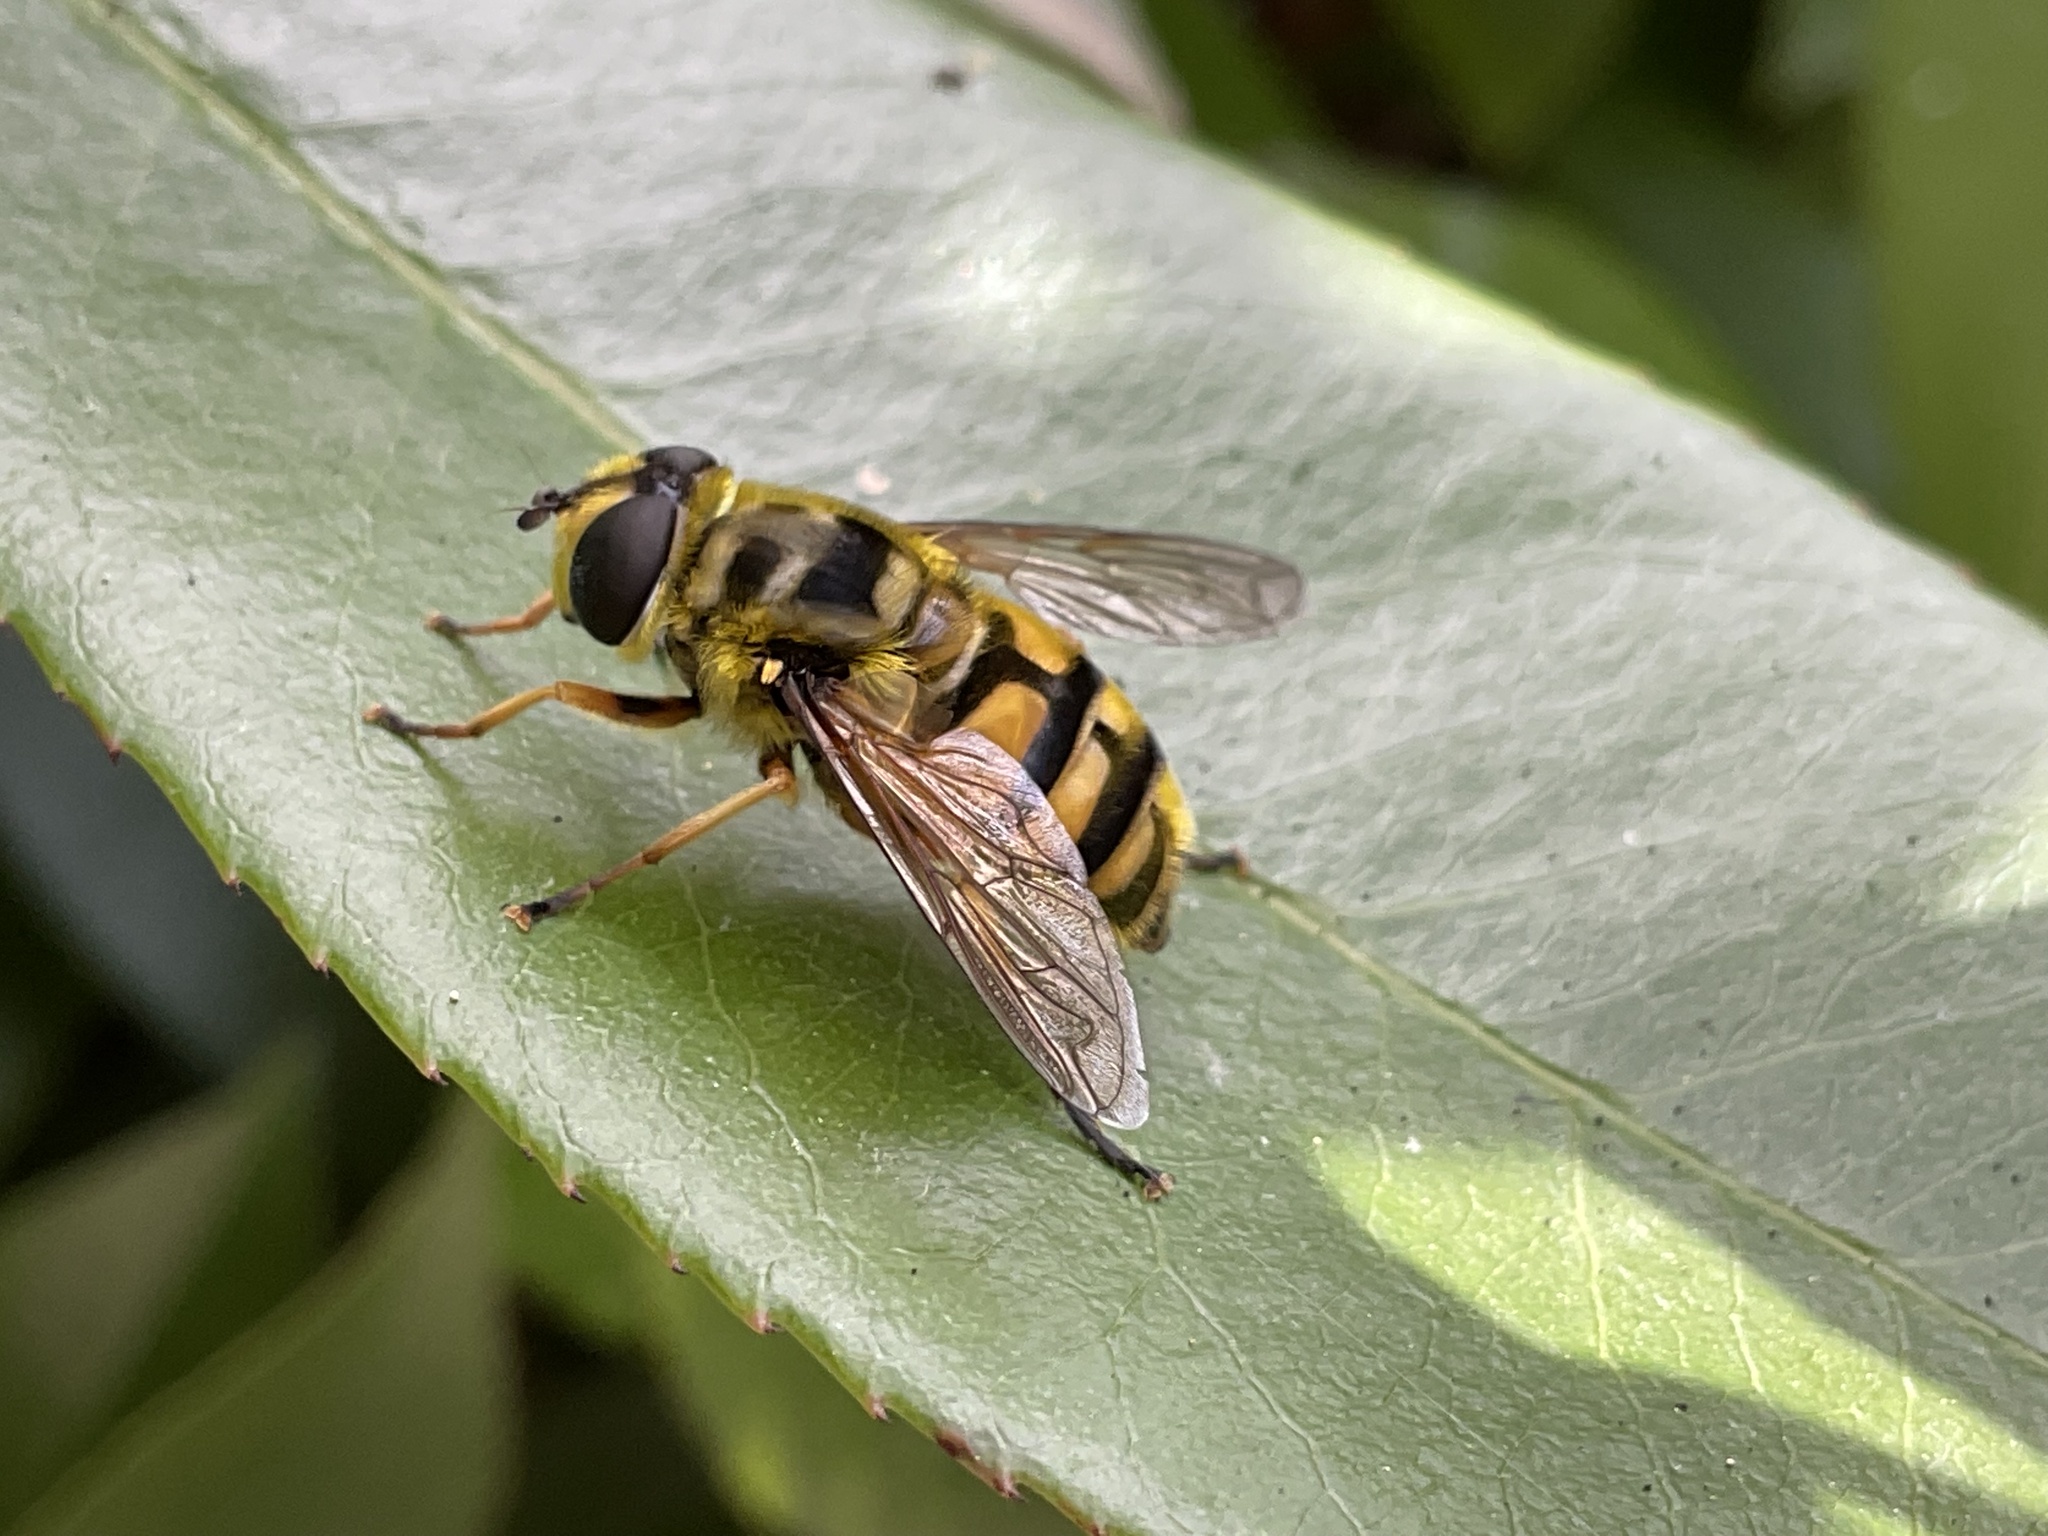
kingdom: Animalia
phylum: Arthropoda
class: Insecta
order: Diptera
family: Syrphidae
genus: Myathropa
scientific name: Myathropa florea
